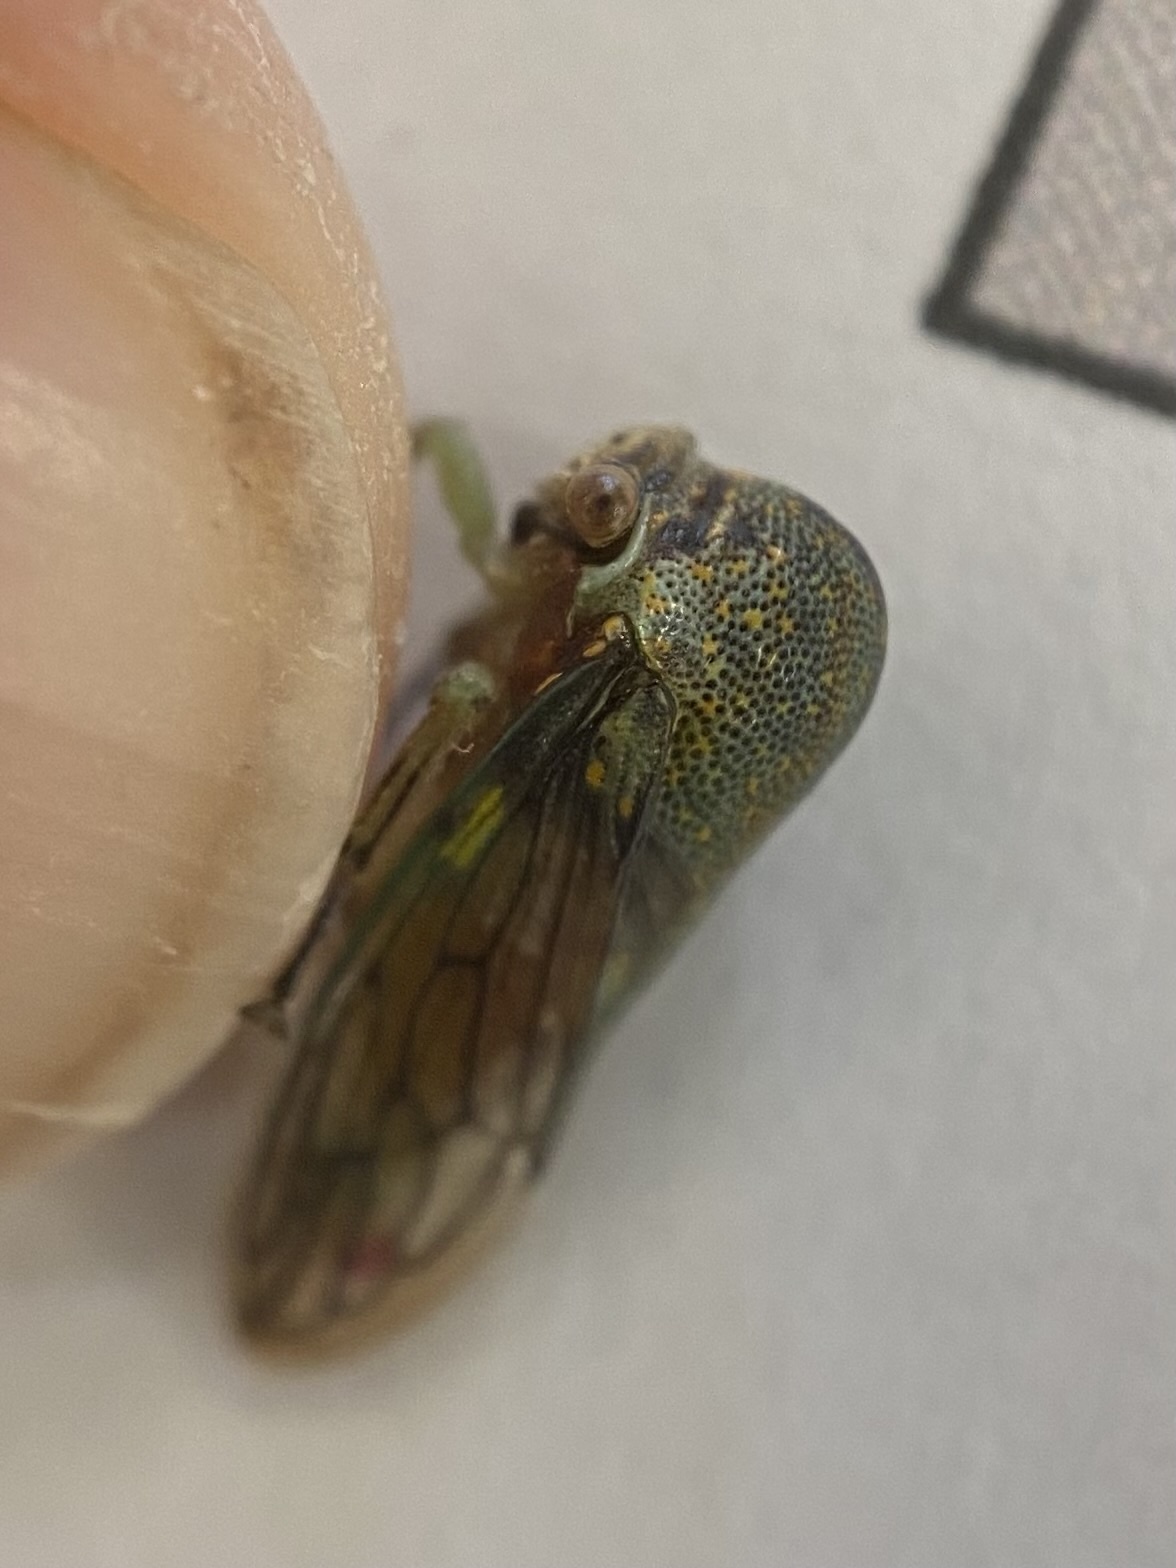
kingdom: Animalia
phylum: Arthropoda
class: Insecta
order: Hemiptera
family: Membracidae
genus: Platycotis
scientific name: Platycotis vittatus
